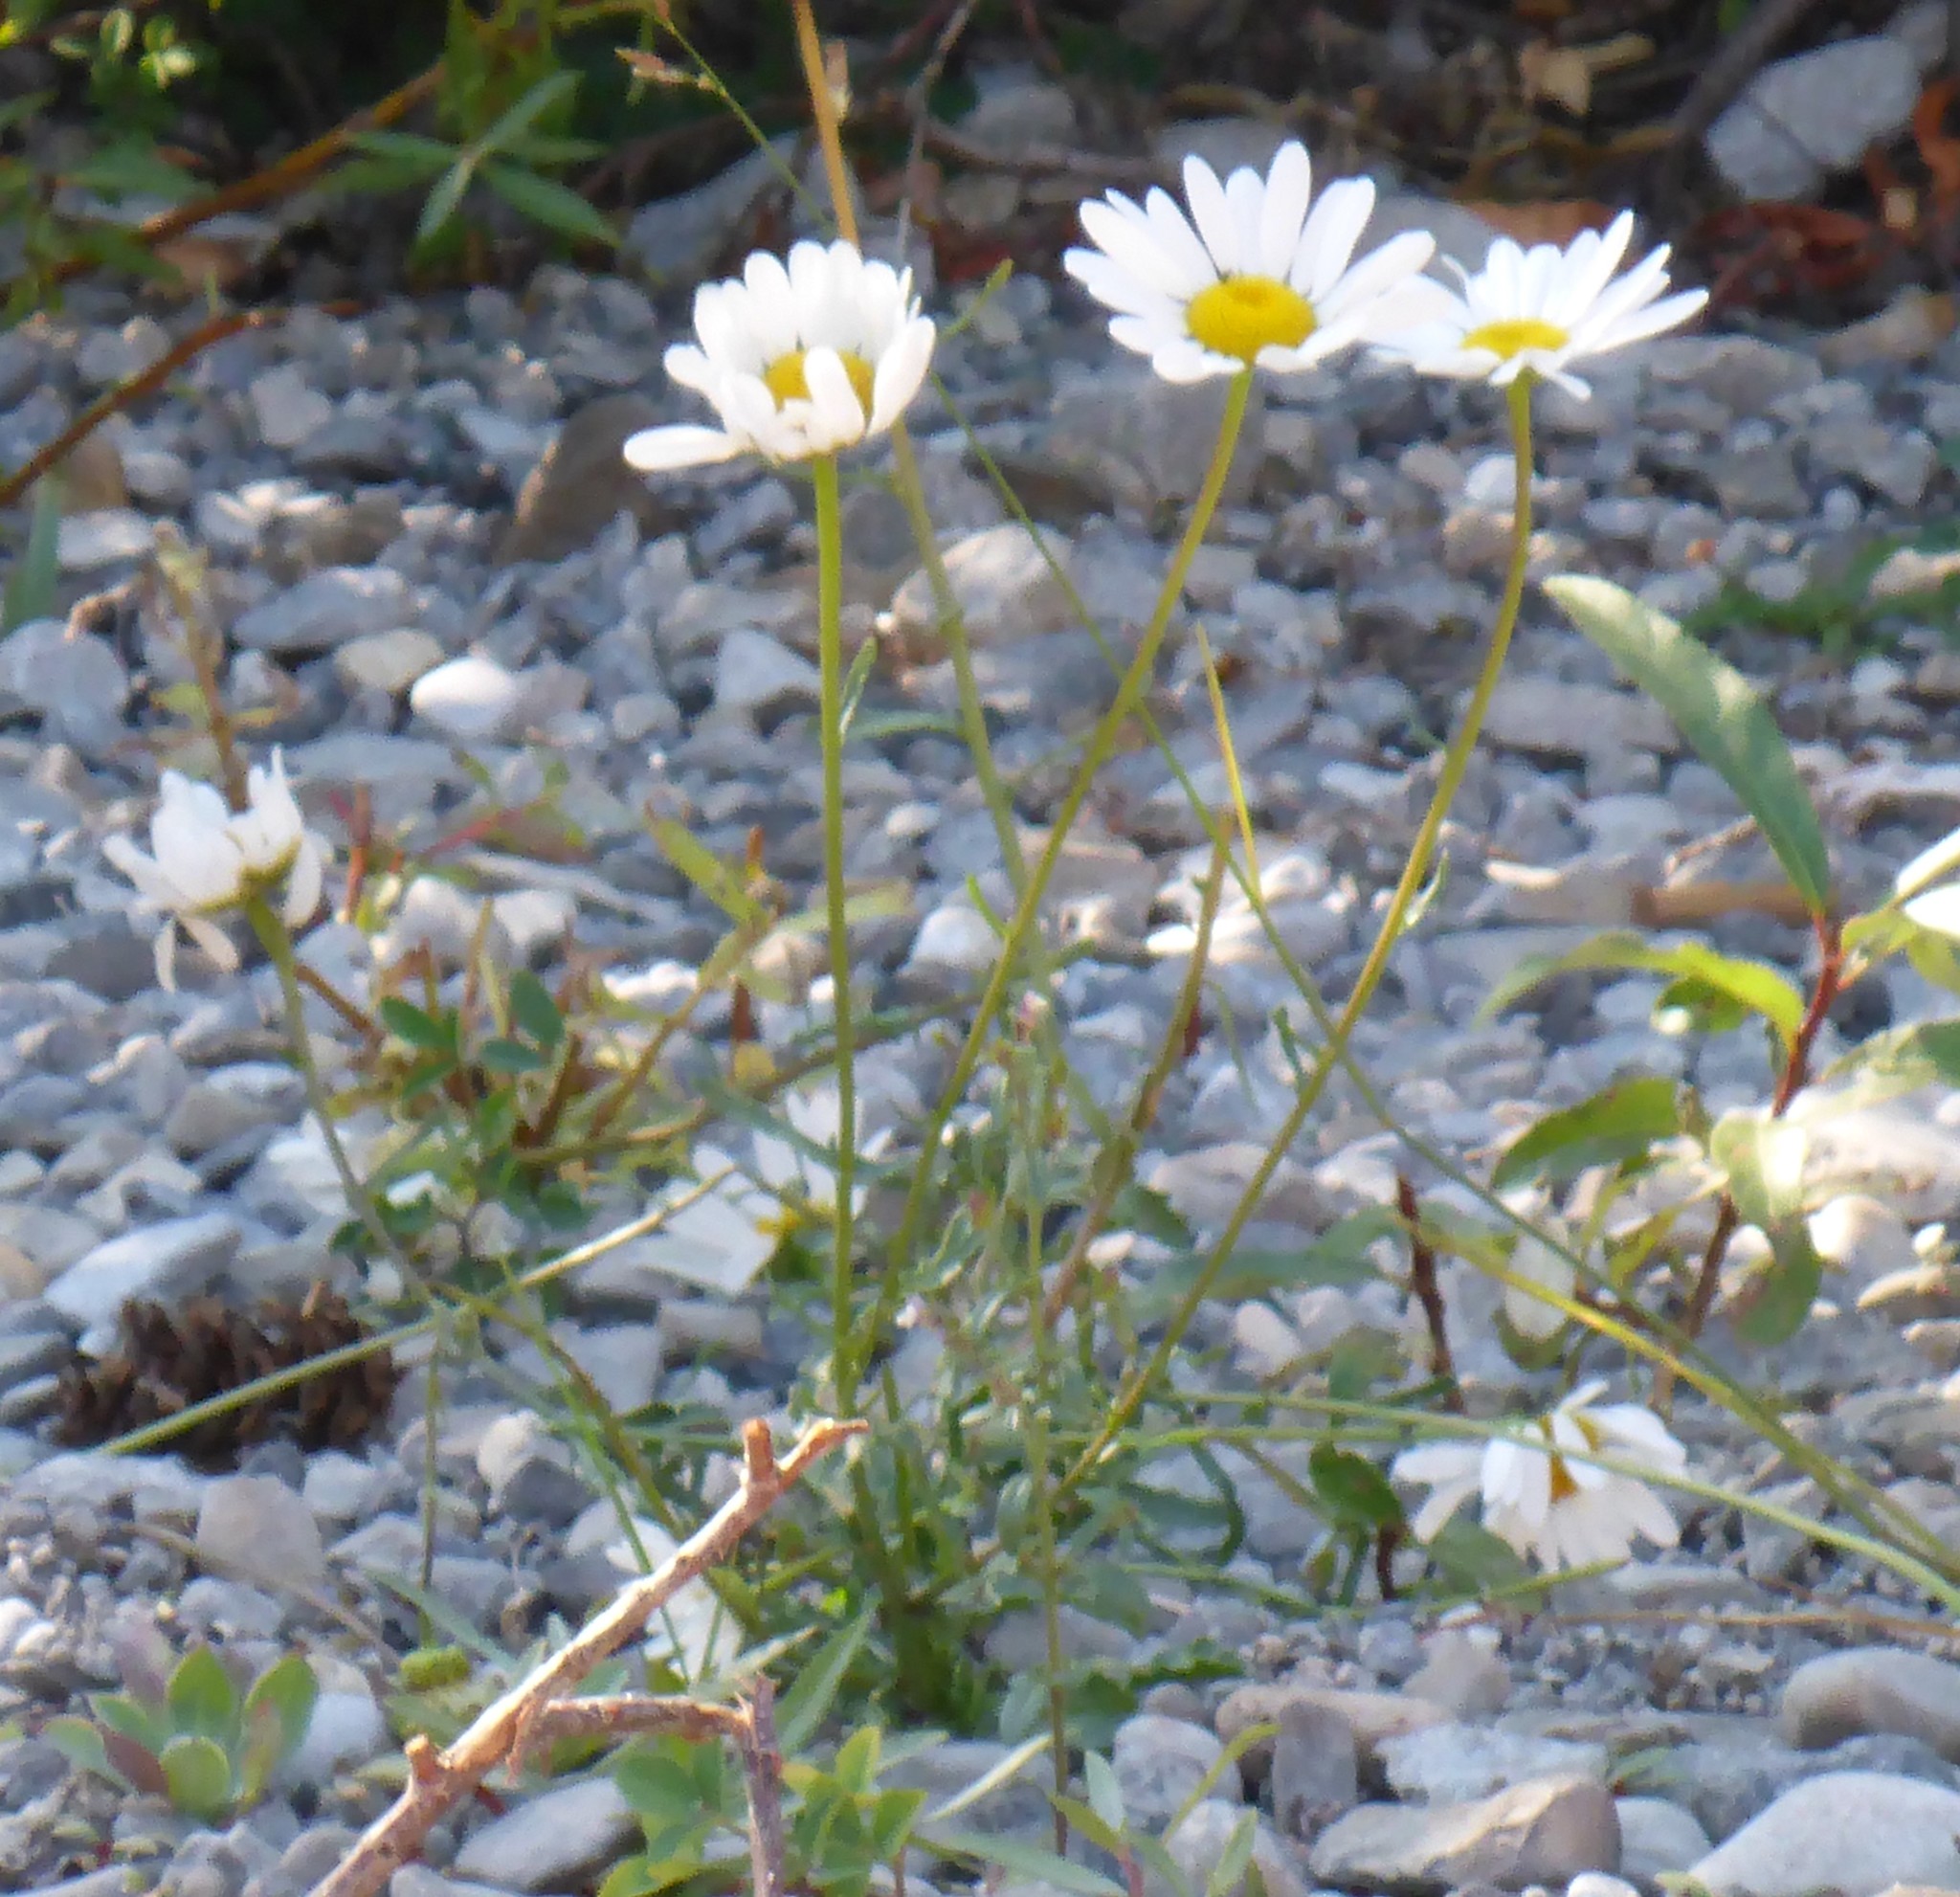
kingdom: Plantae
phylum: Tracheophyta
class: Magnoliopsida
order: Asterales
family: Asteraceae
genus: Leucanthemum
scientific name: Leucanthemum vulgare
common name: Oxeye daisy
